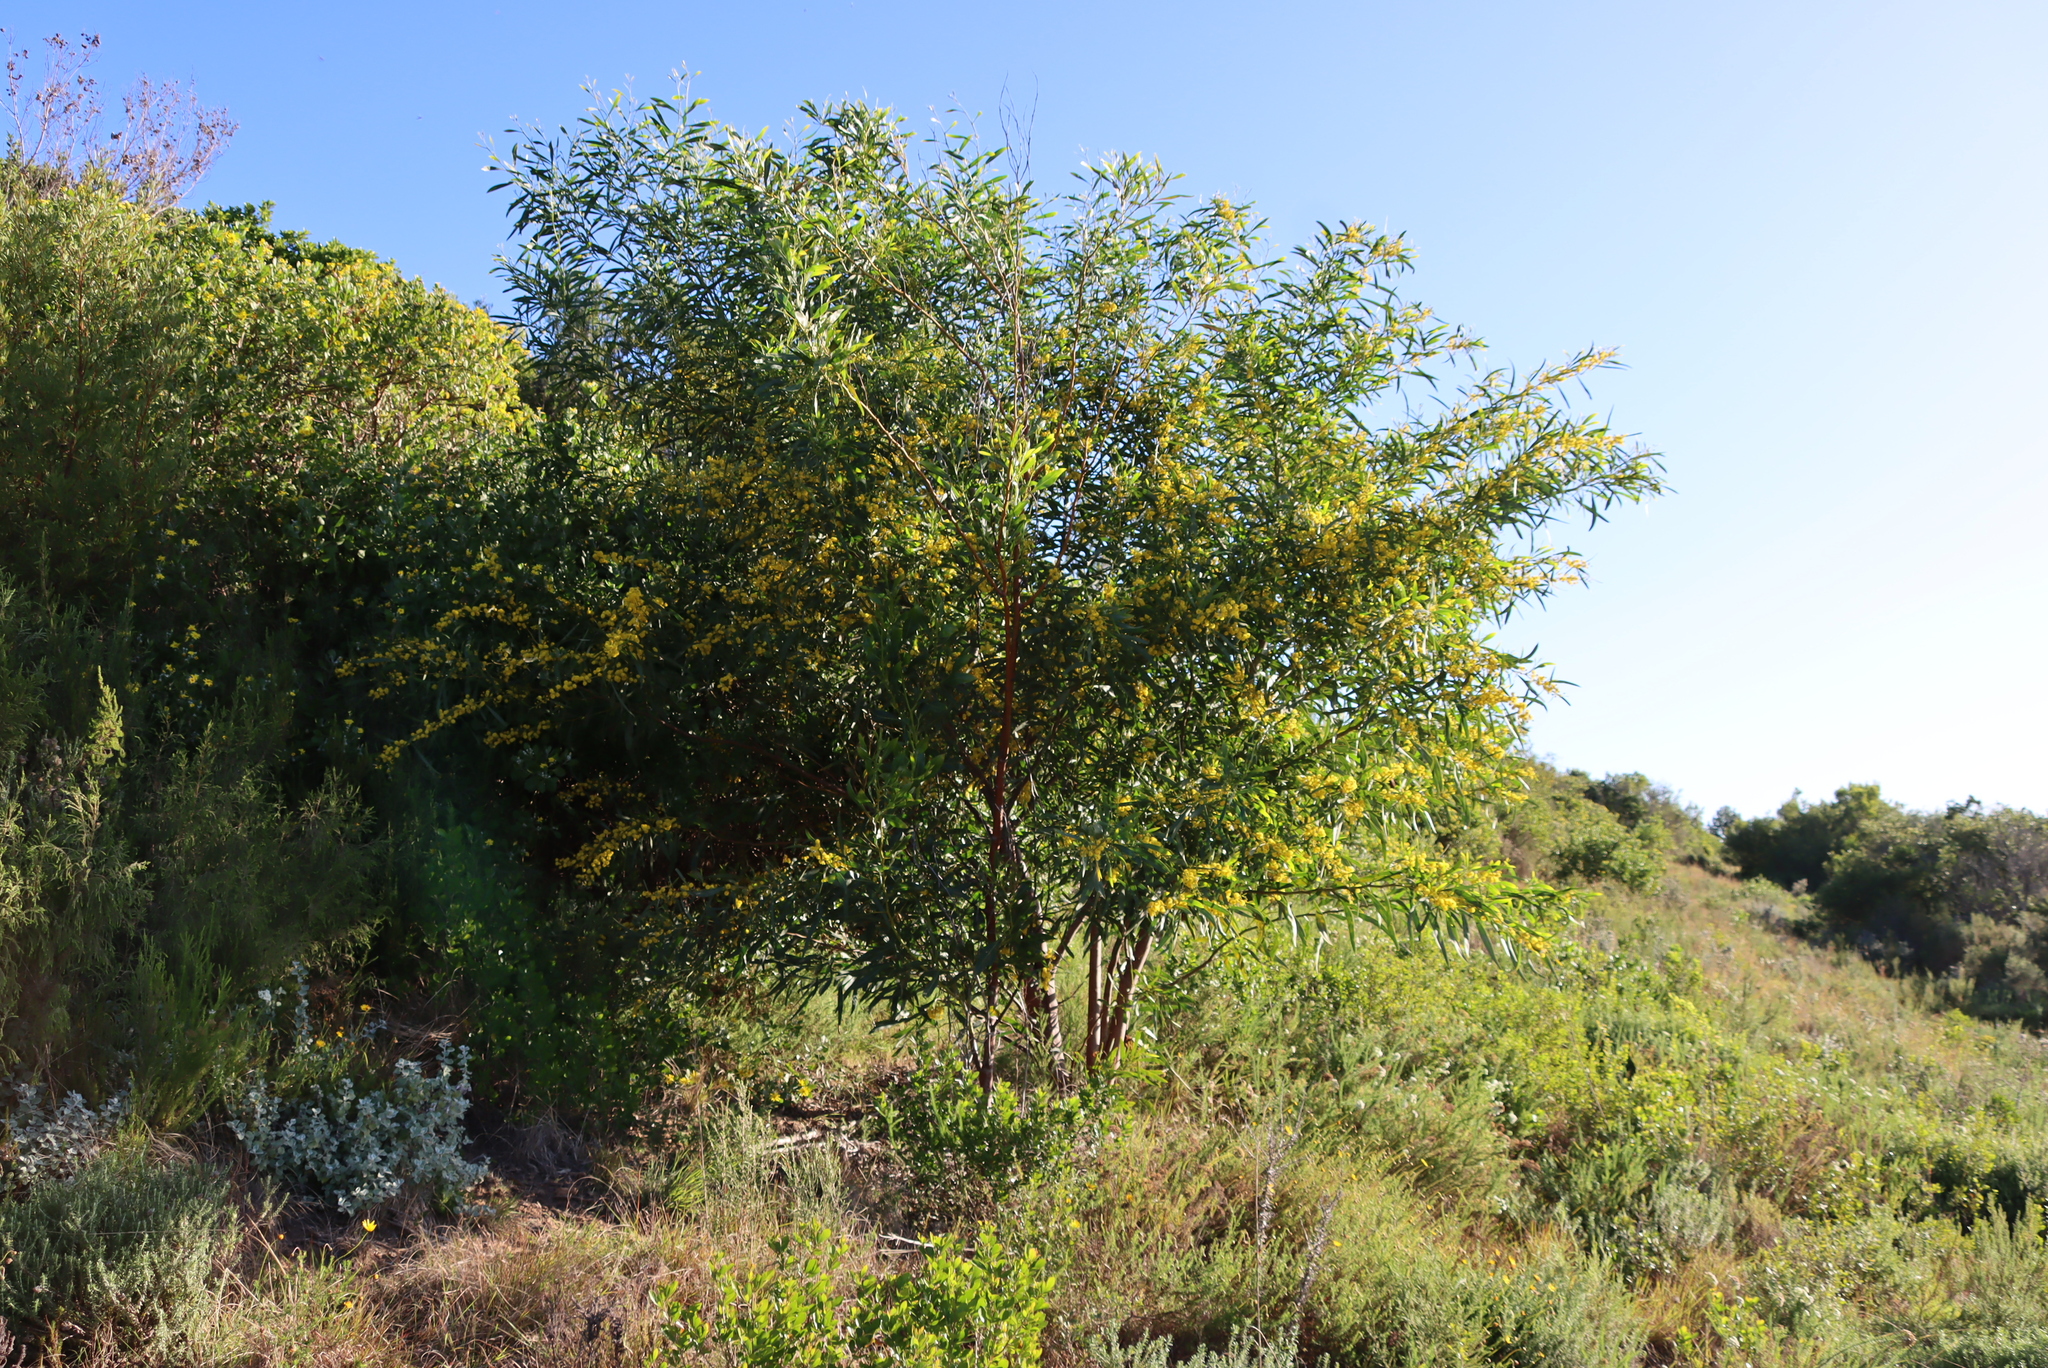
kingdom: Plantae
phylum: Tracheophyta
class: Magnoliopsida
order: Fabales
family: Fabaceae
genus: Acacia
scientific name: Acacia saligna
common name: Orange wattle
